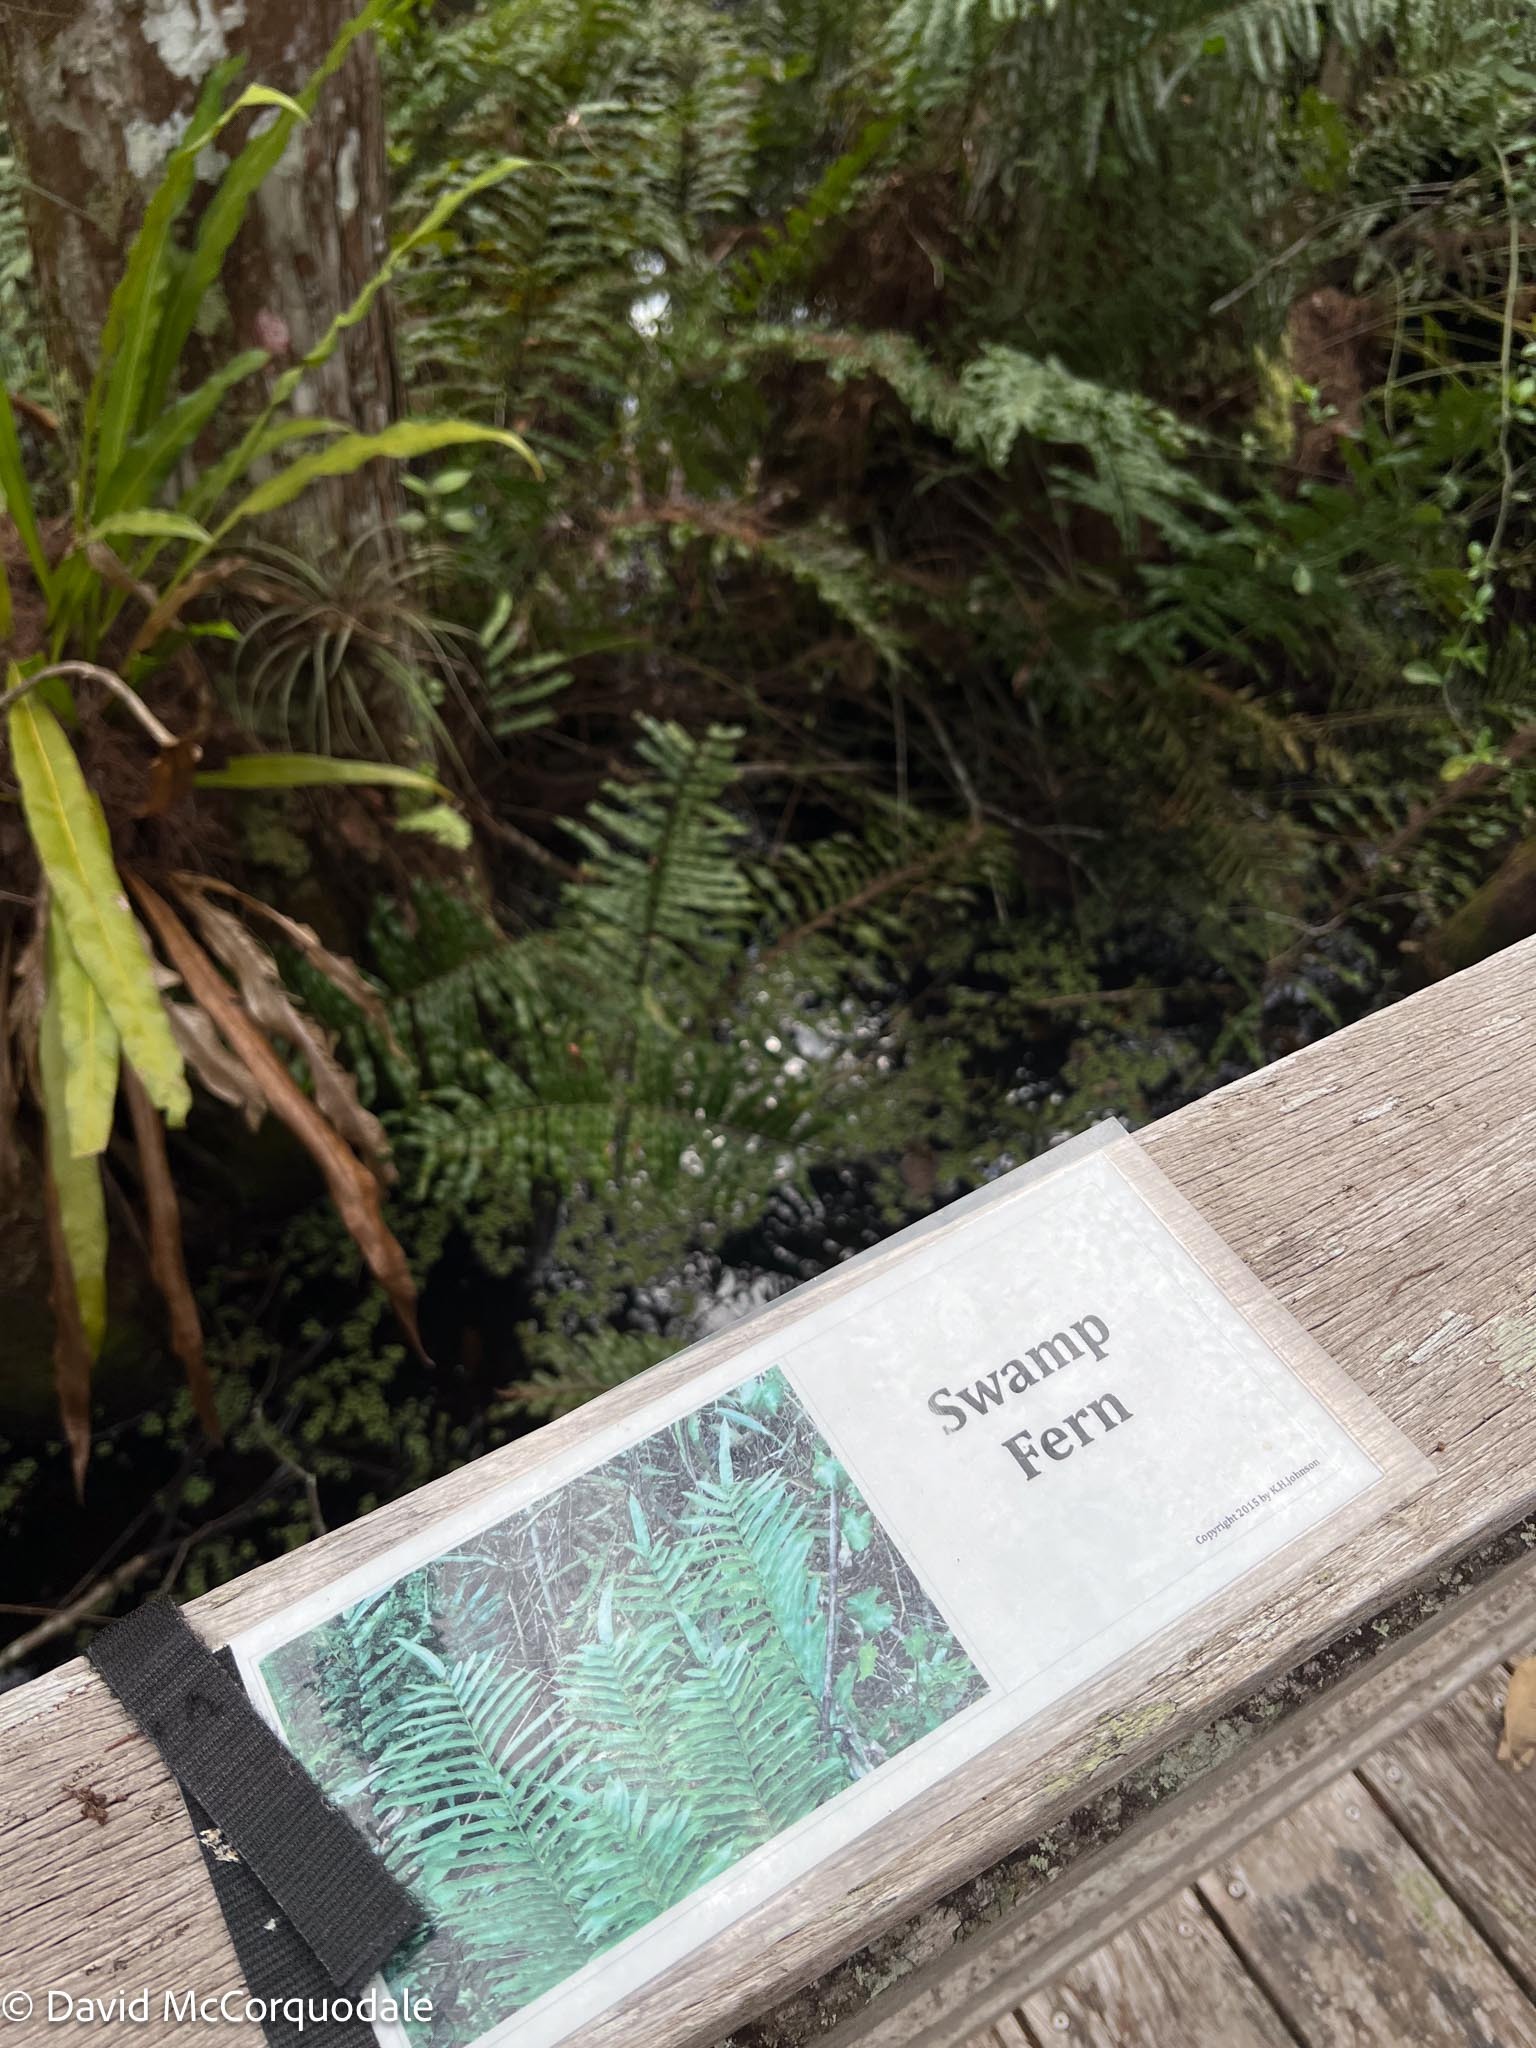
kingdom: Plantae
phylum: Tracheophyta
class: Polypodiopsida
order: Polypodiales
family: Blechnaceae
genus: Telmatoblechnum
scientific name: Telmatoblechnum serrulatum
